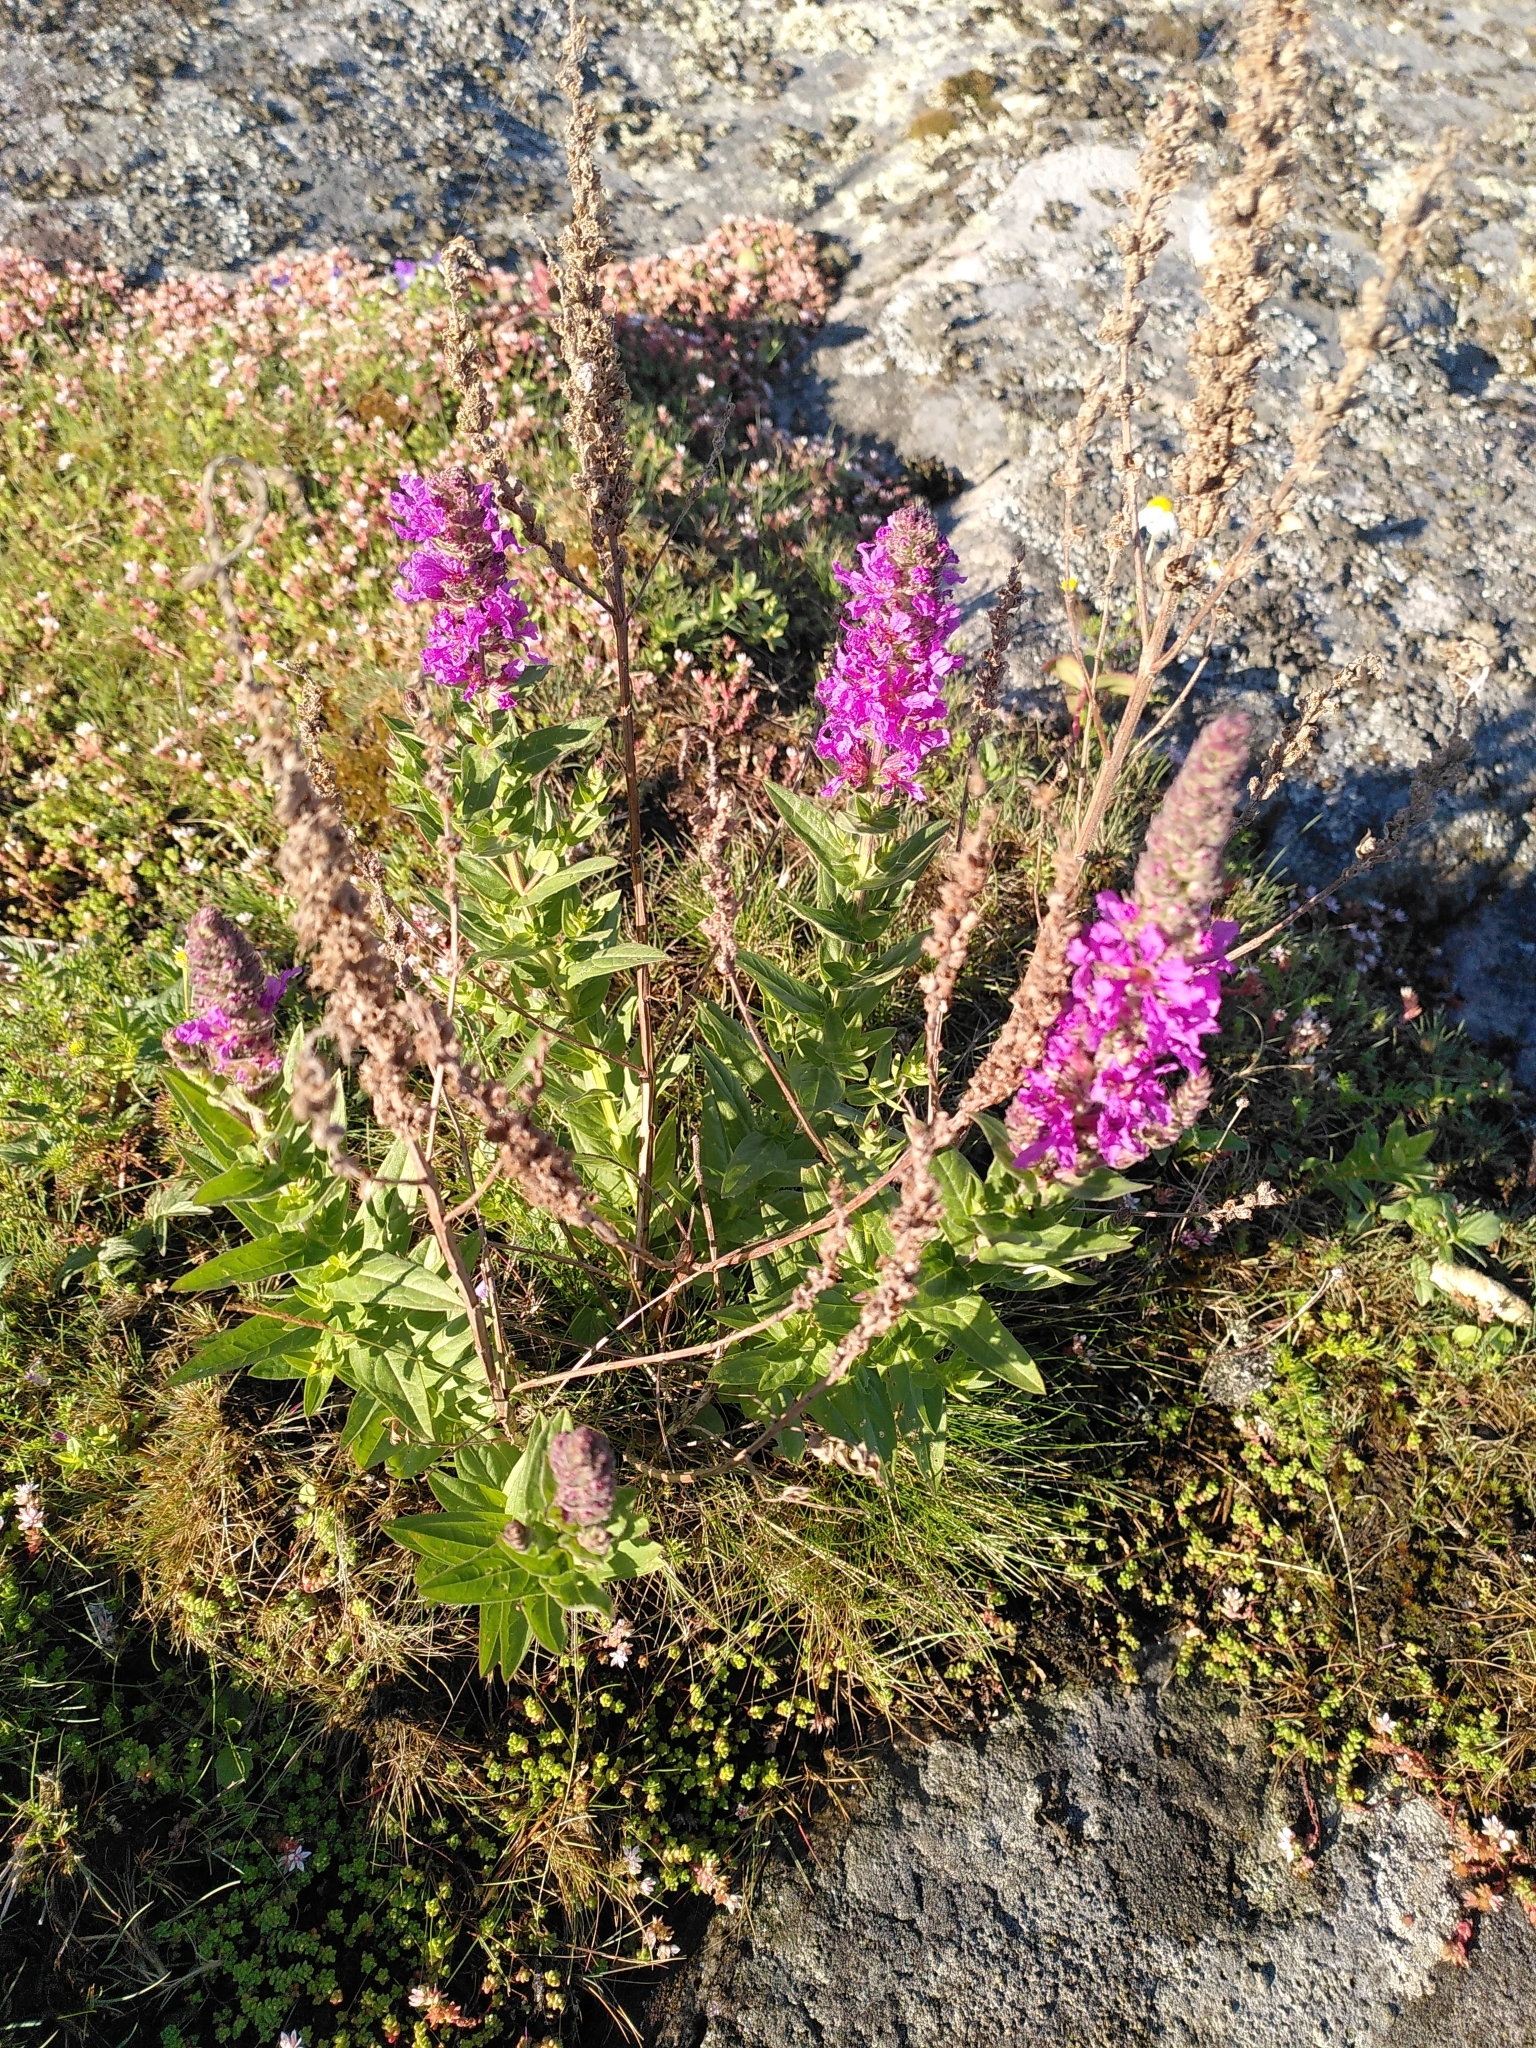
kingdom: Plantae
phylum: Tracheophyta
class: Magnoliopsida
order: Myrtales
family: Lythraceae
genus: Lythrum
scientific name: Lythrum salicaria
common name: Purple loosestrife
